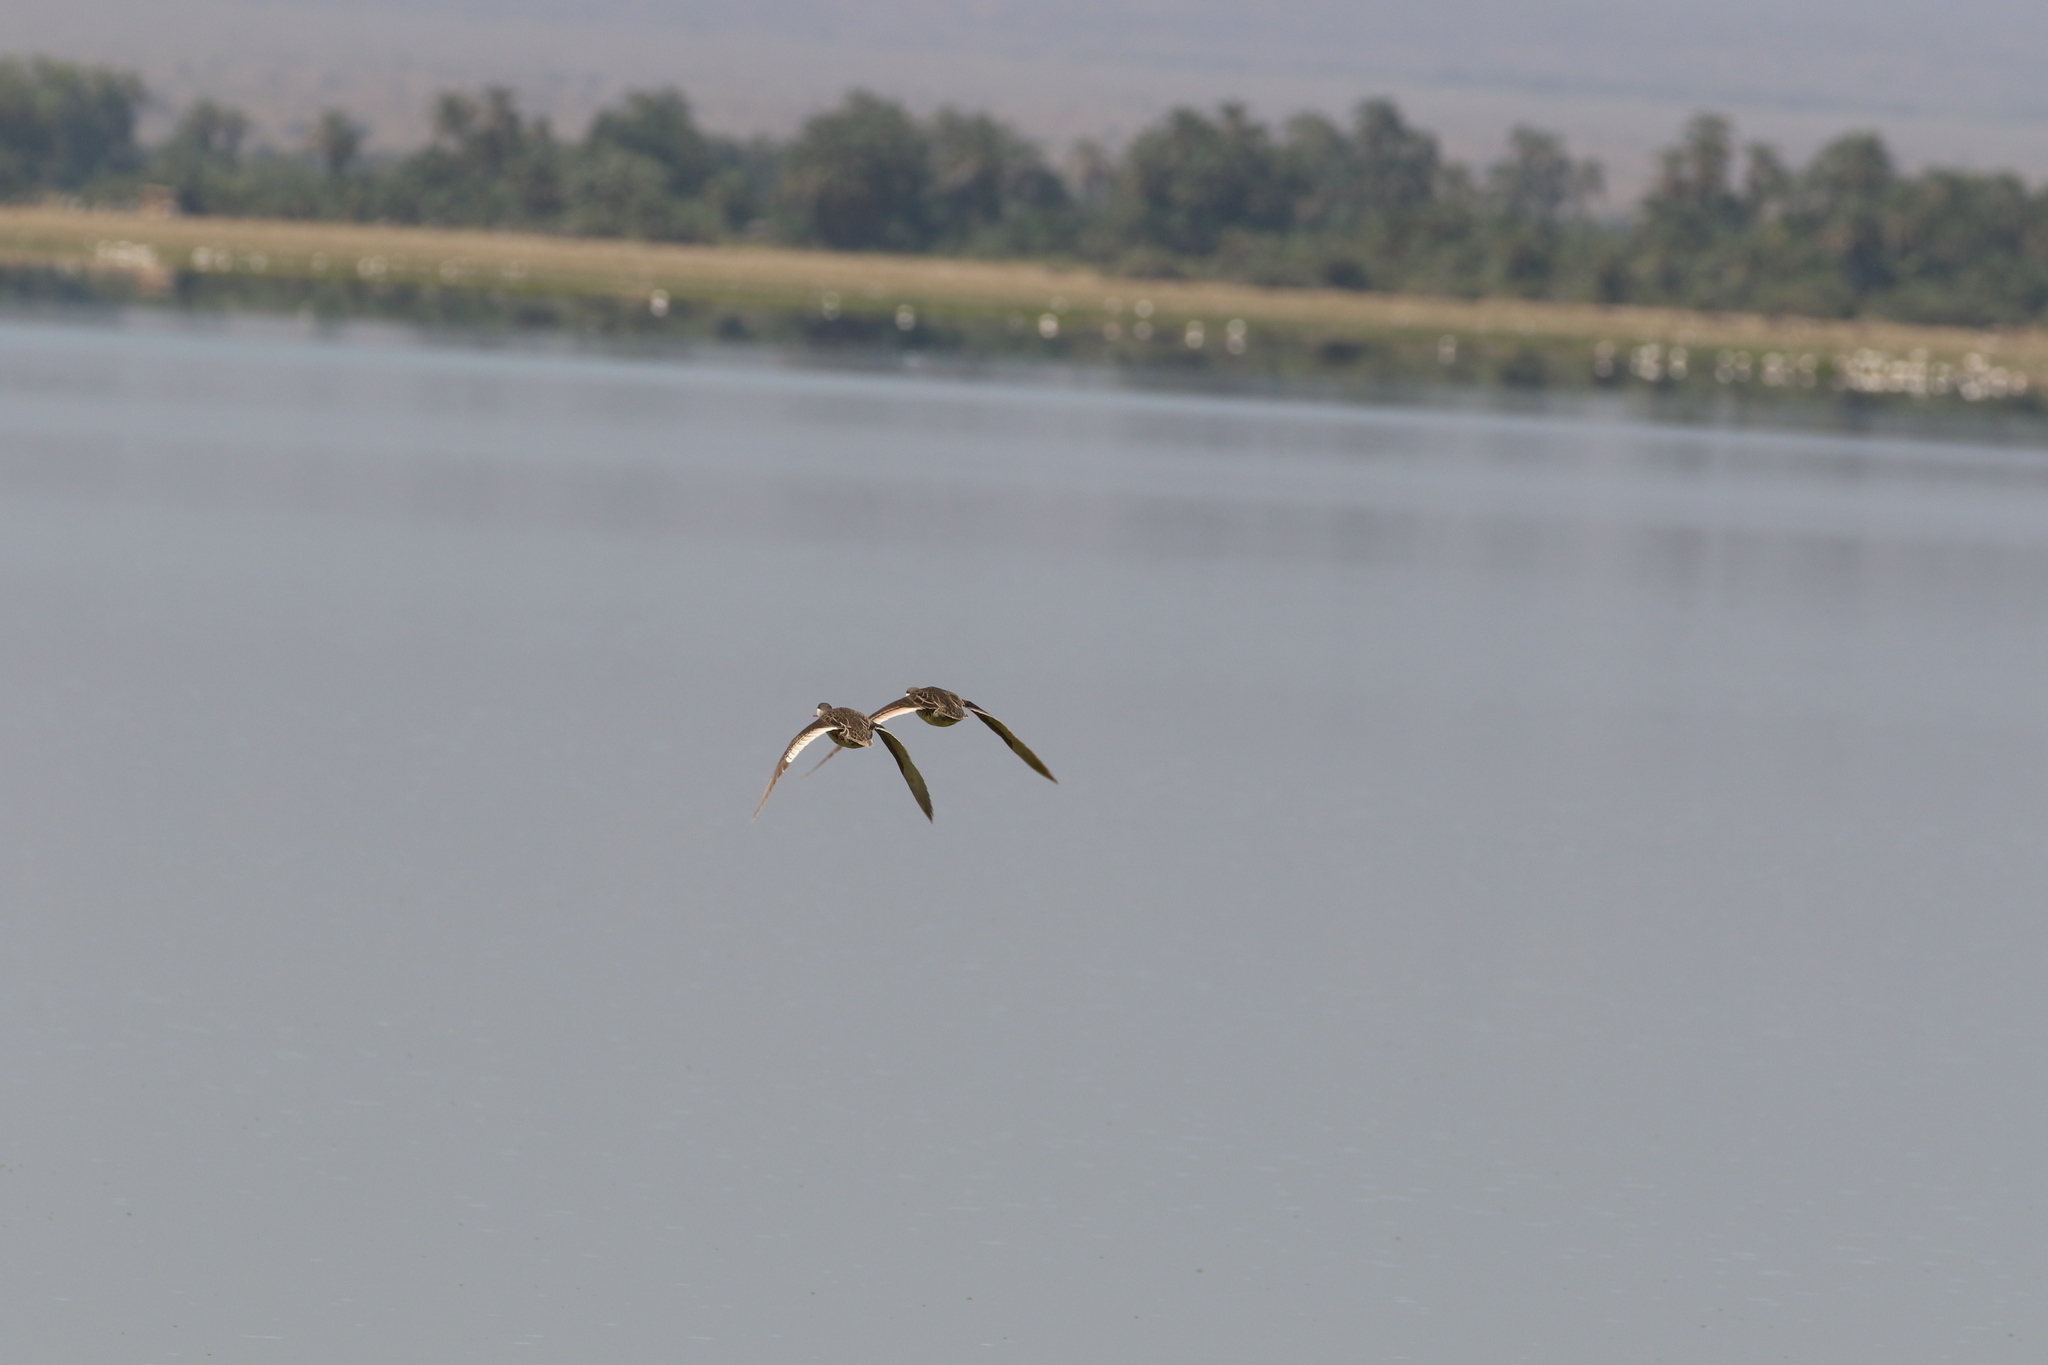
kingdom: Animalia
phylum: Chordata
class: Aves
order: Anseriformes
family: Anatidae
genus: Anas
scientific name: Anas erythrorhyncha
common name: Red-billed teal
